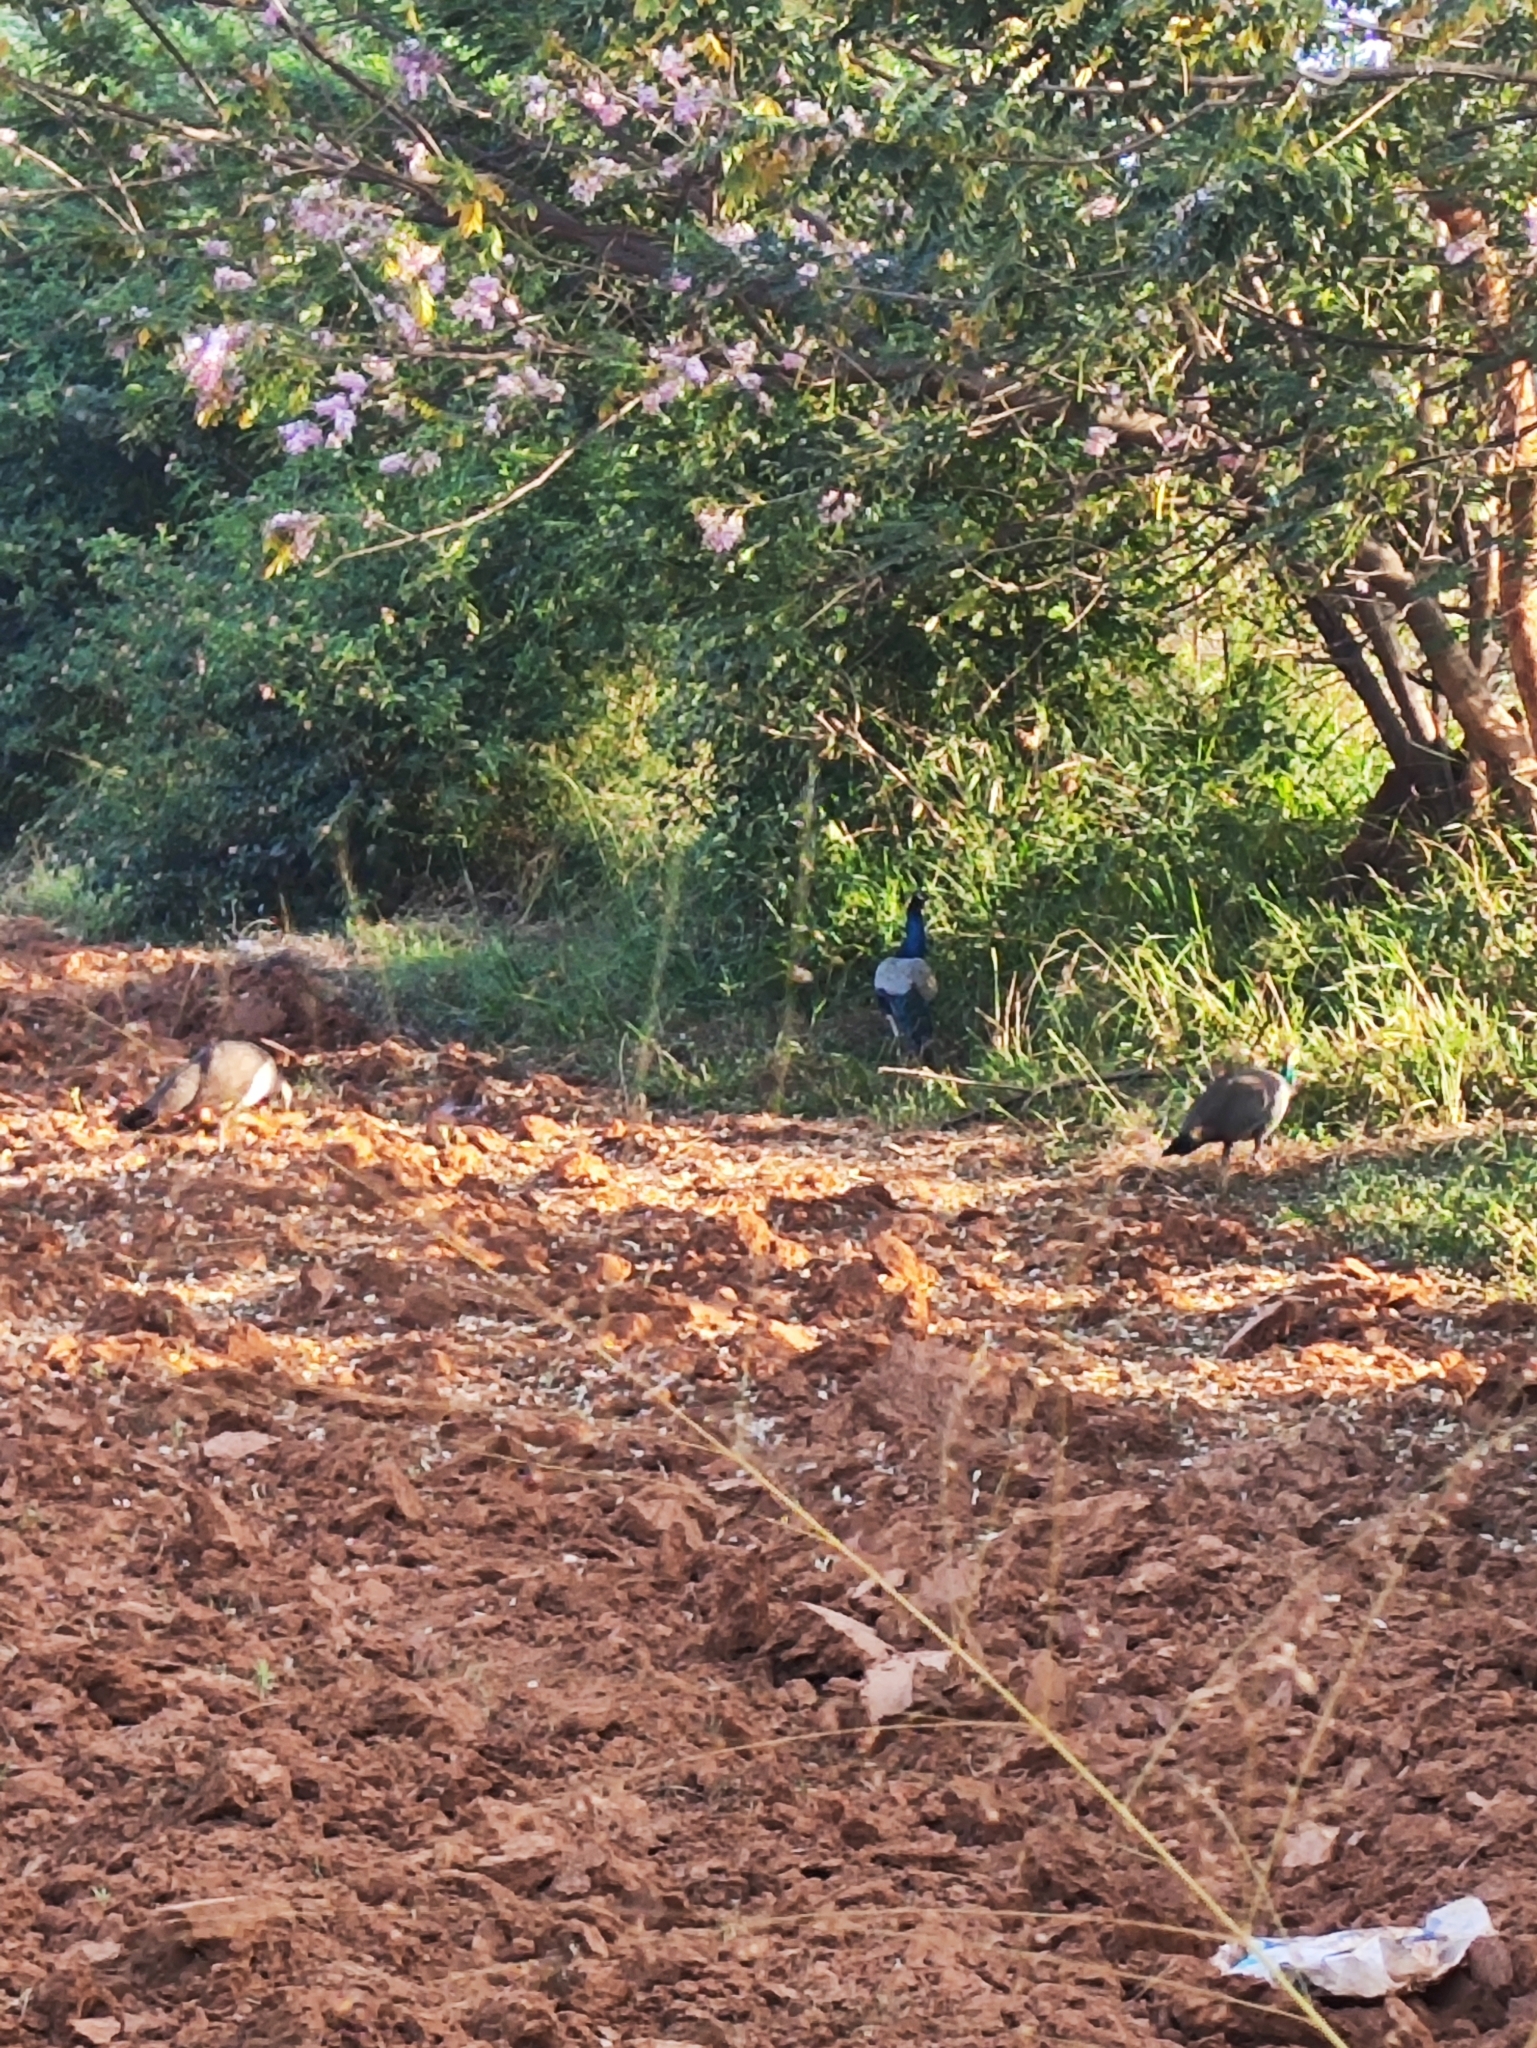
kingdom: Animalia
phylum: Chordata
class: Aves
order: Galliformes
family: Phasianidae
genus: Pavo
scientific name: Pavo cristatus
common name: Indian peafowl
